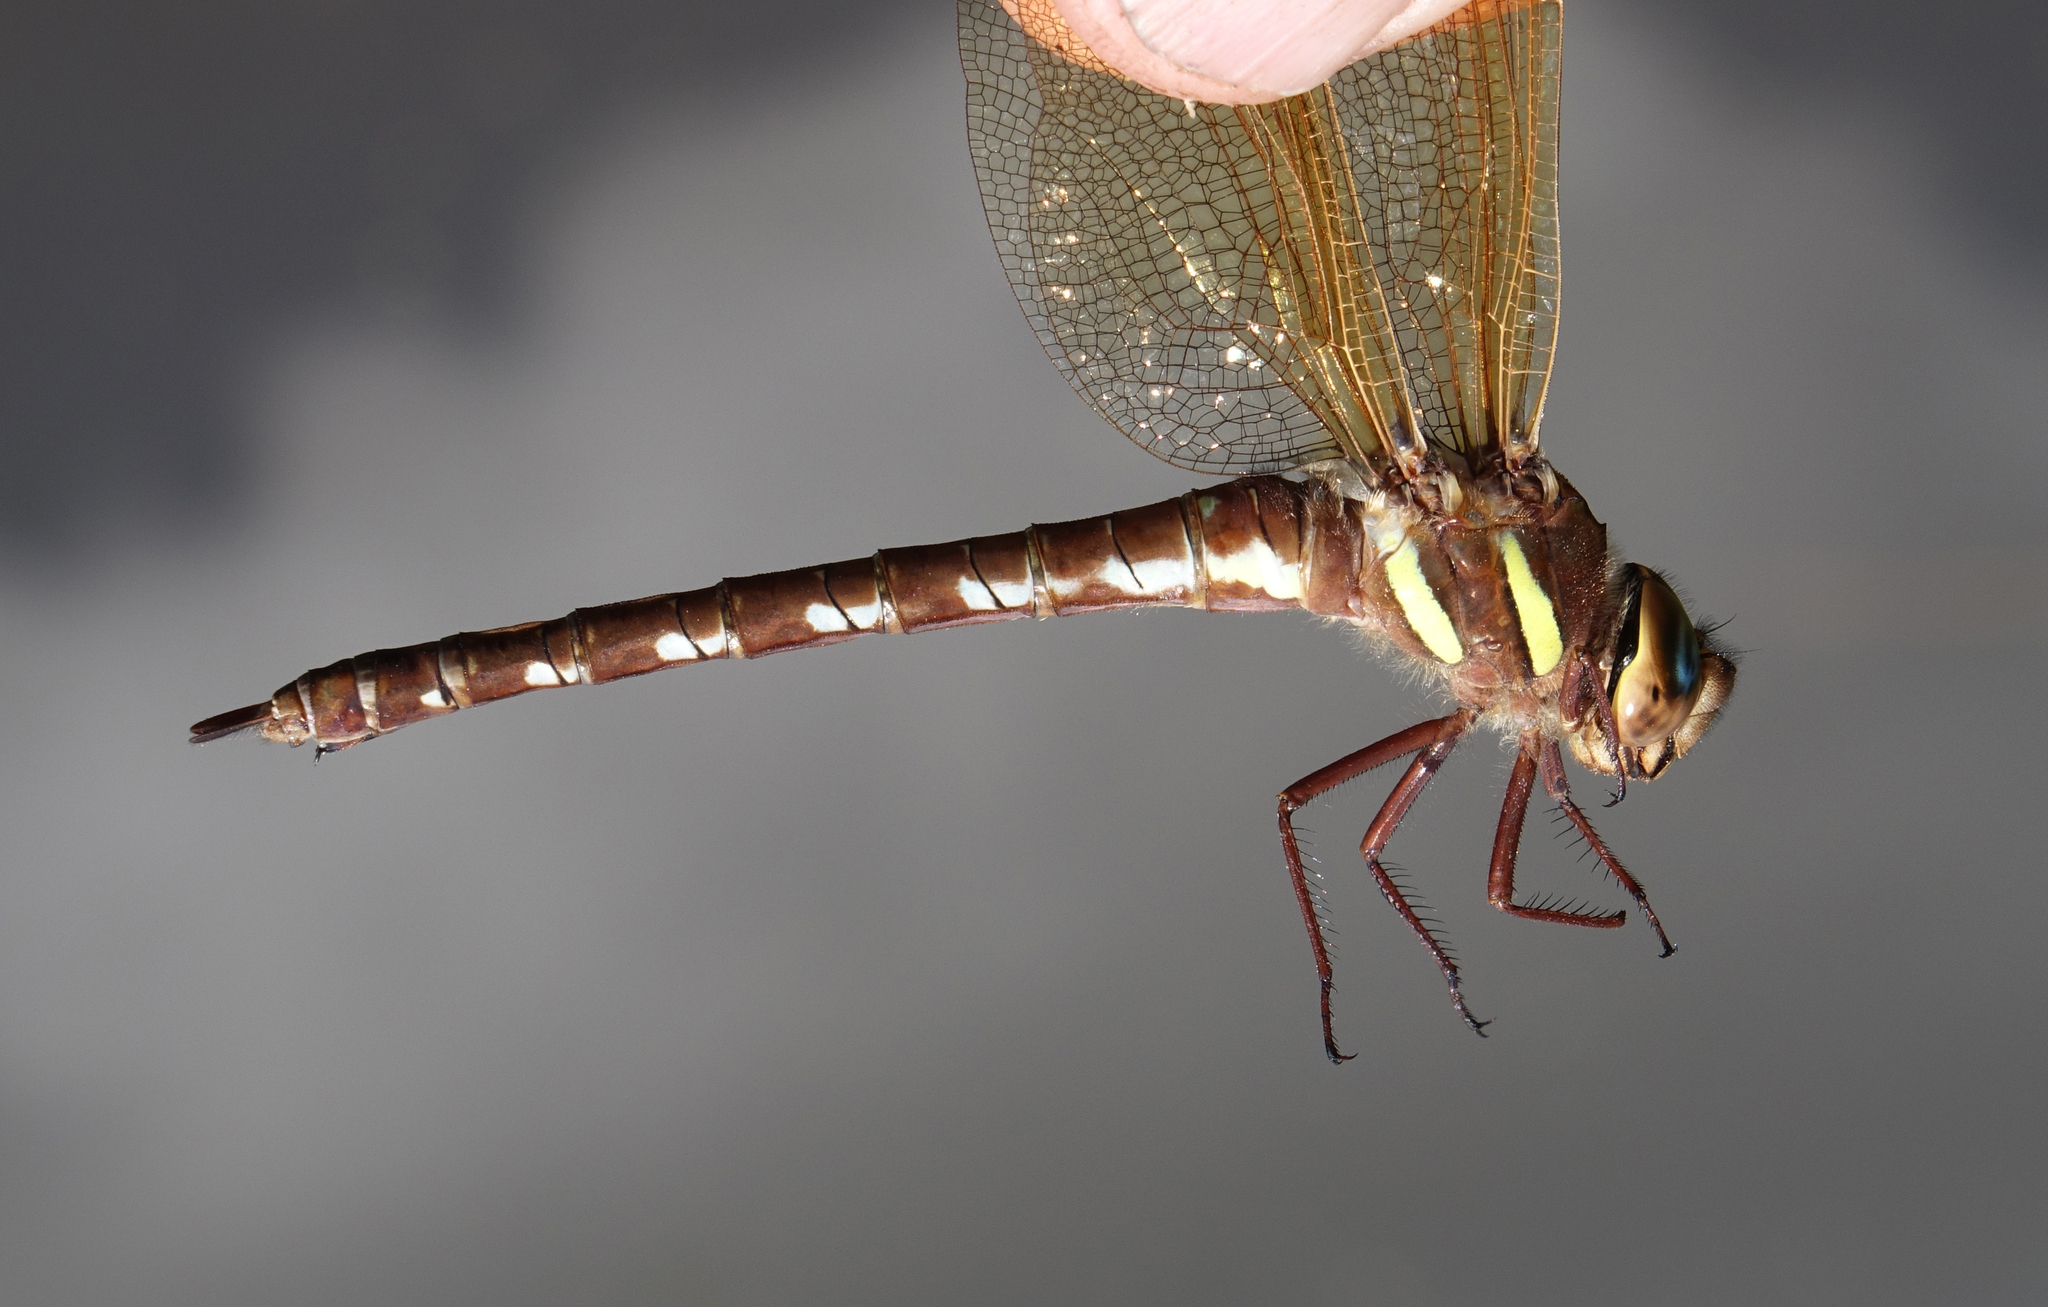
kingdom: Animalia
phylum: Arthropoda
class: Insecta
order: Odonata
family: Aeshnidae
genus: Aeshna
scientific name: Aeshna grandis
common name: Brown hawker
